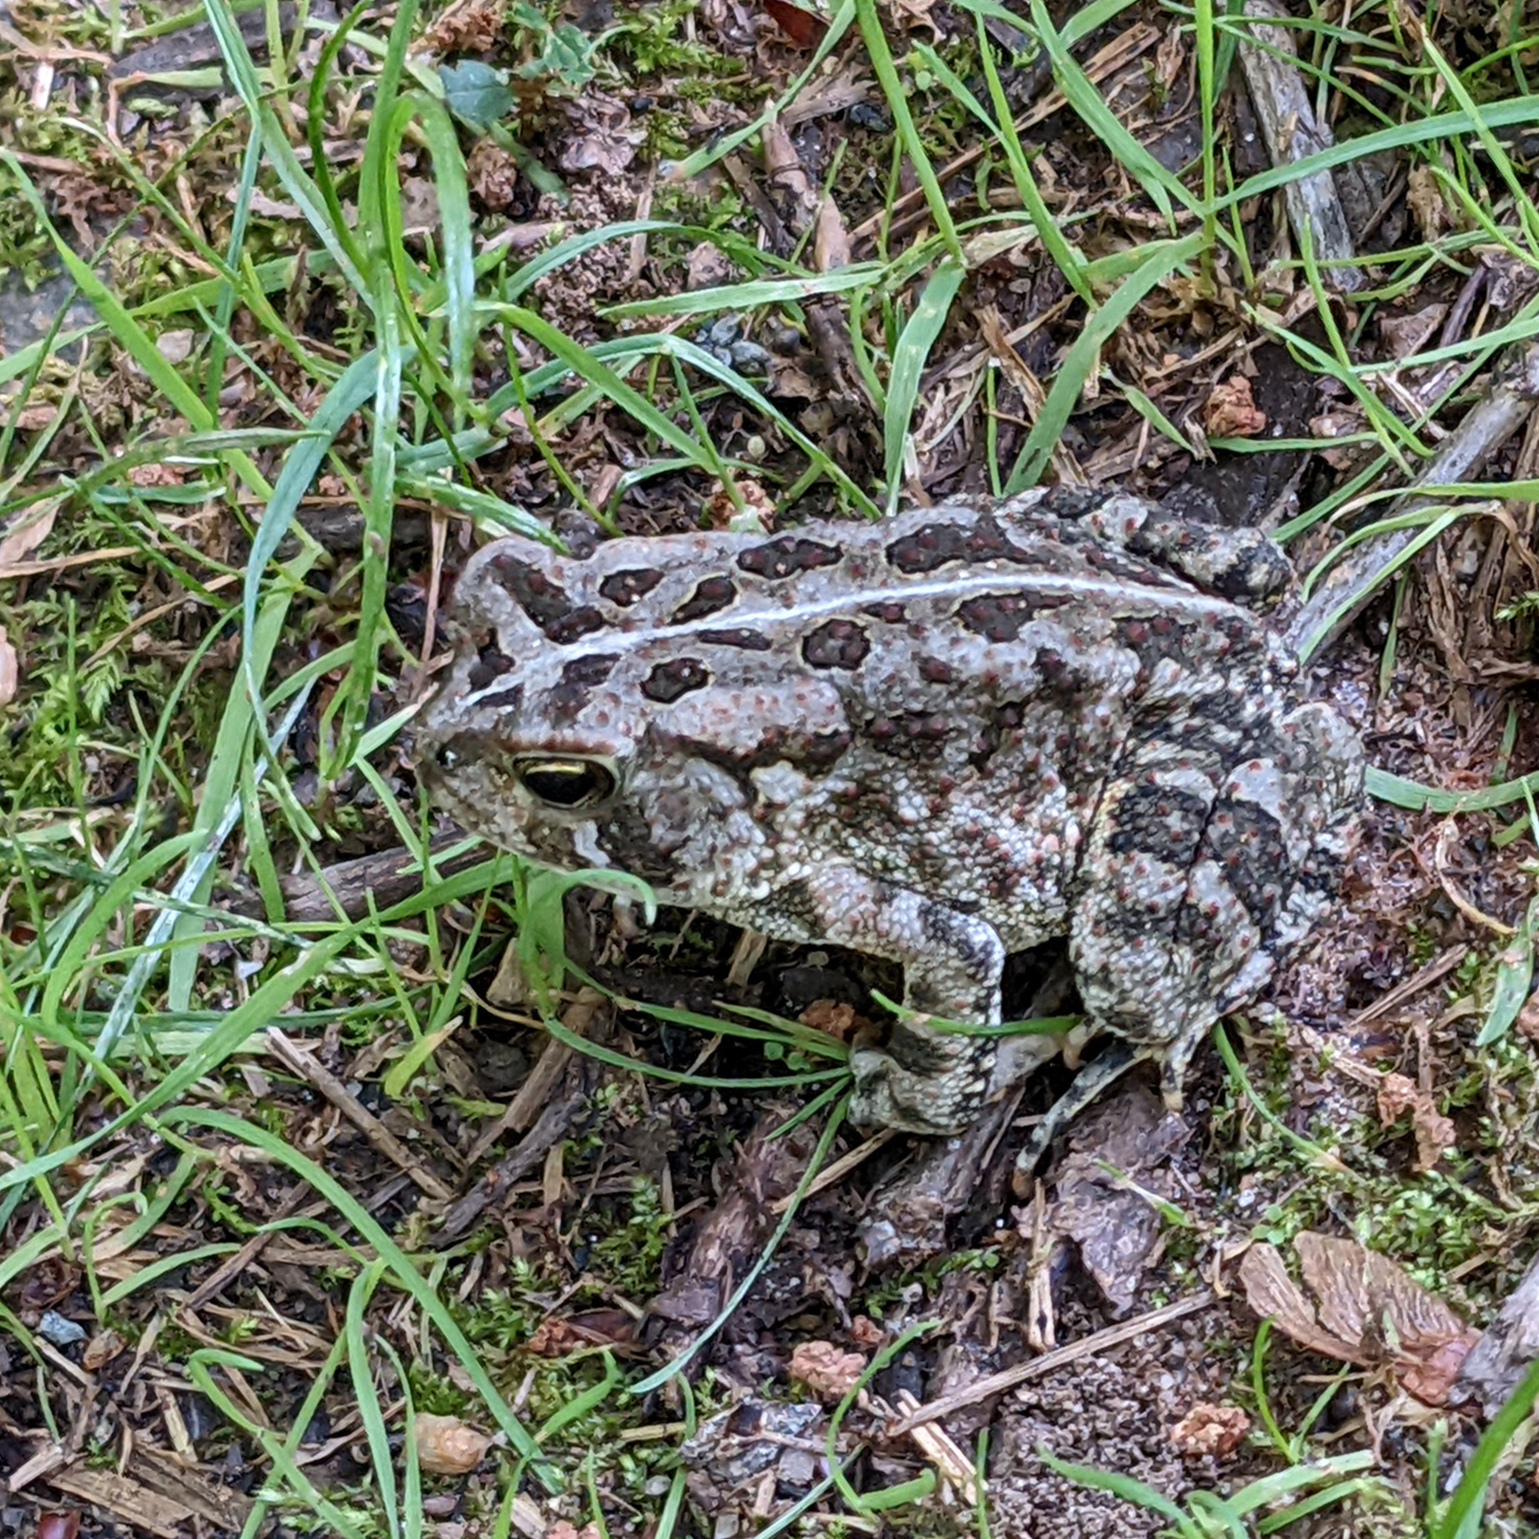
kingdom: Animalia
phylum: Chordata
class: Amphibia
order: Anura
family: Bufonidae
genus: Anaxyrus
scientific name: Anaxyrus fowleri
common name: Fowler's toad
